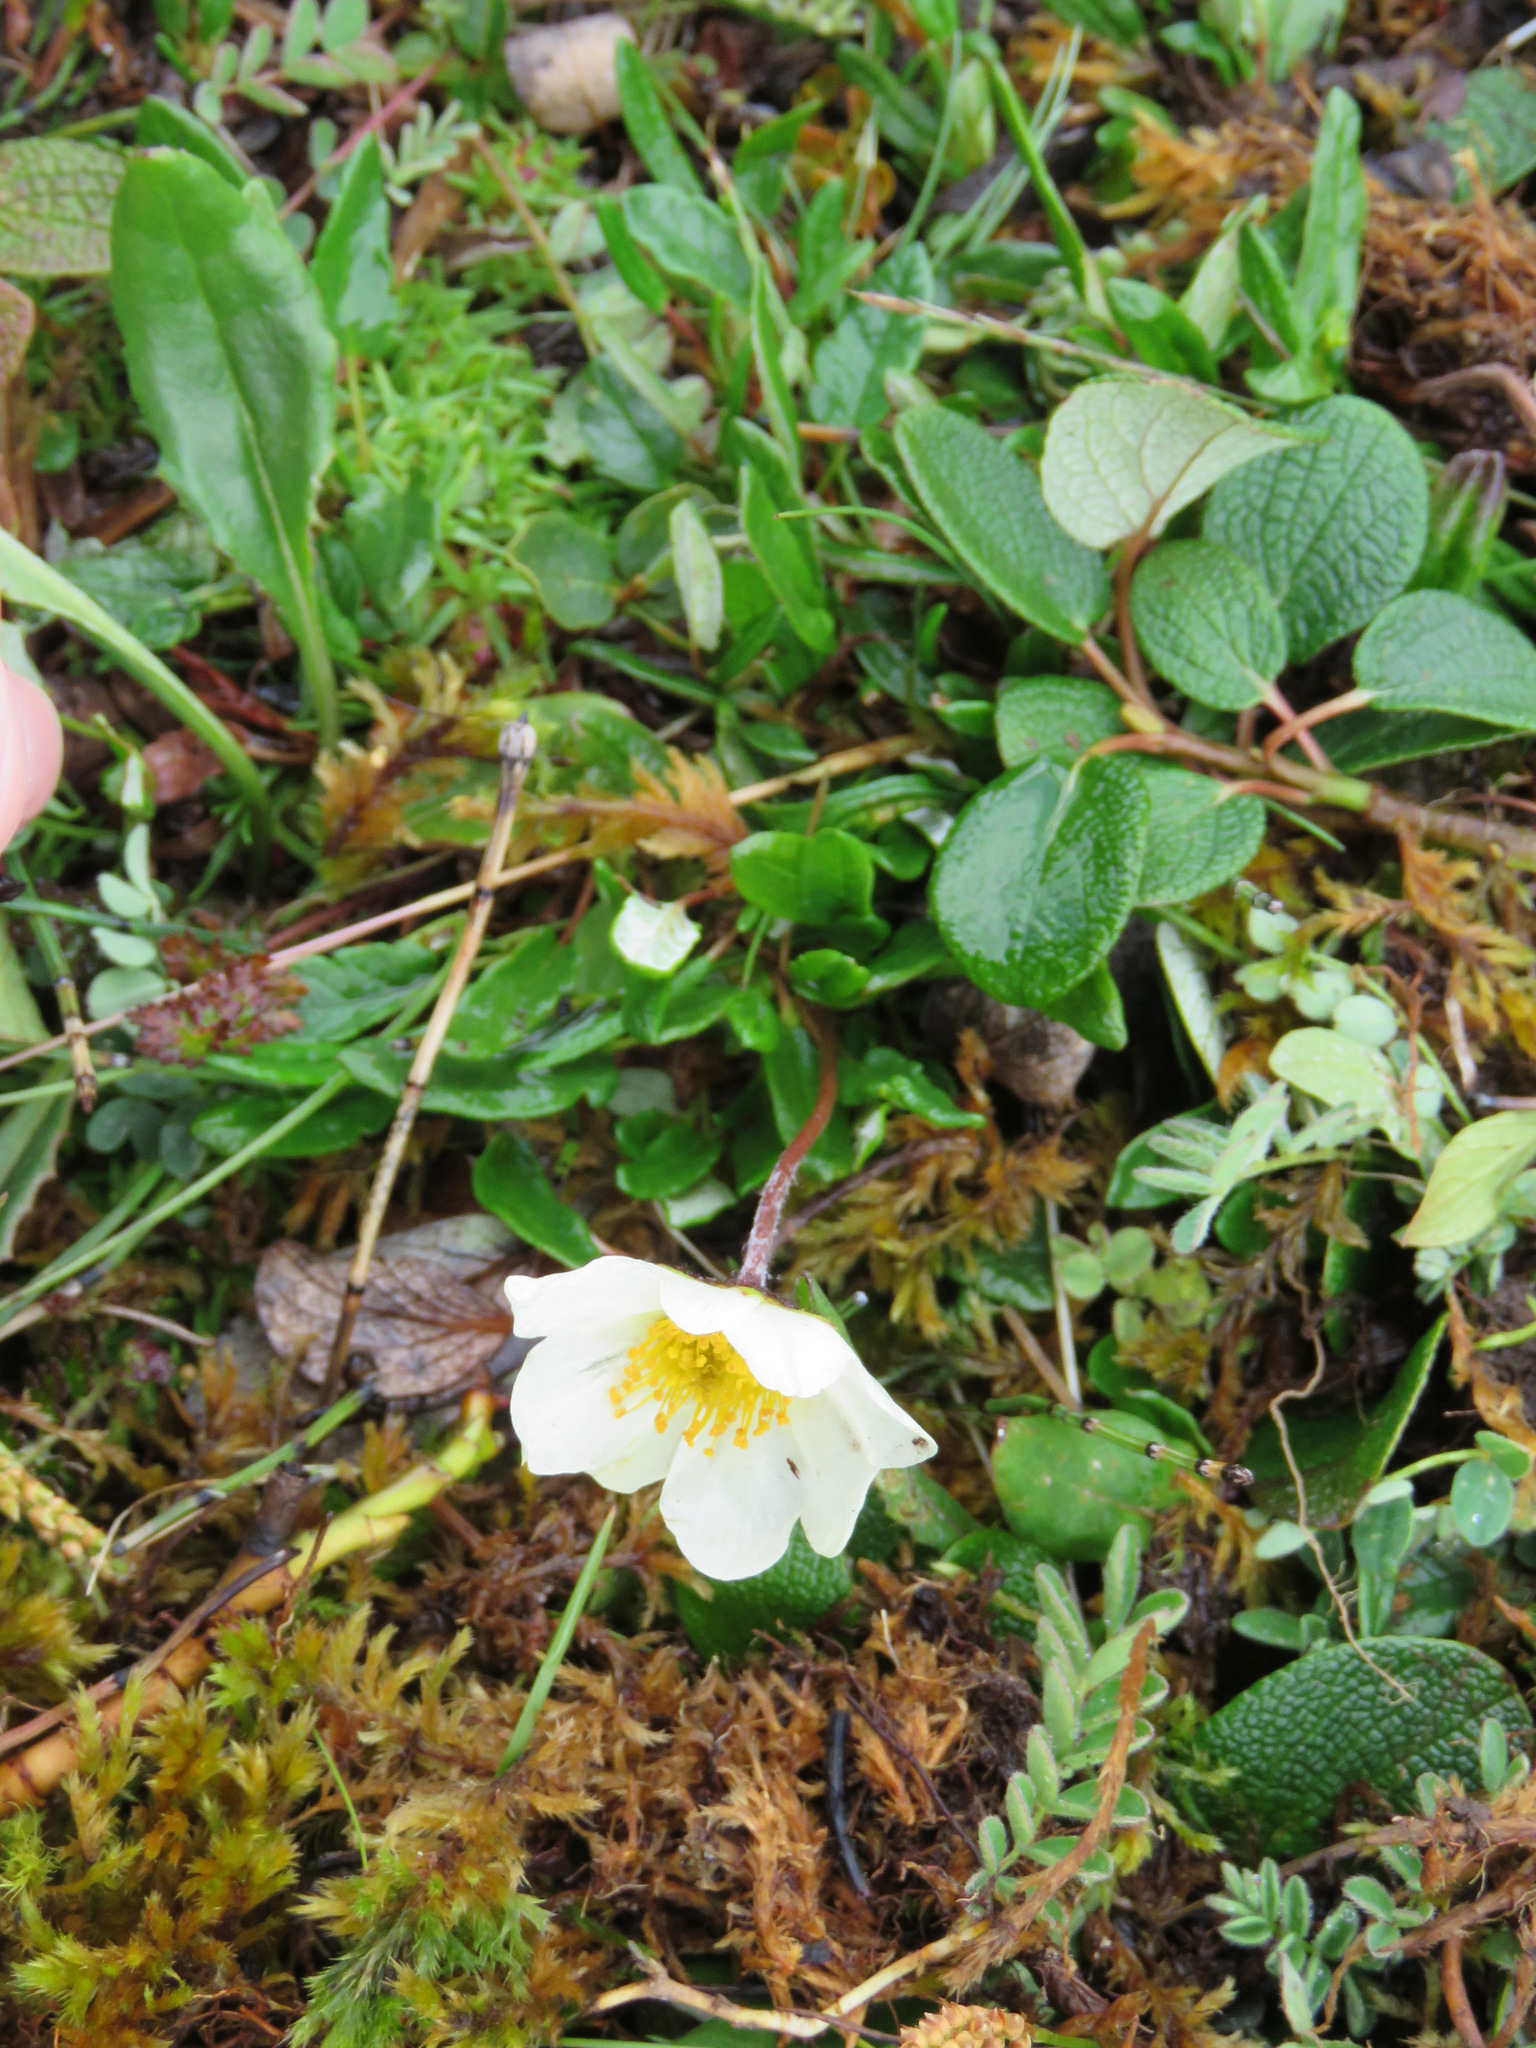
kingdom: Plantae
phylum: Tracheophyta
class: Magnoliopsida
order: Rosales
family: Rosaceae
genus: Dryas
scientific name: Dryas integrifolia
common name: Entire-leaved mountain avens
